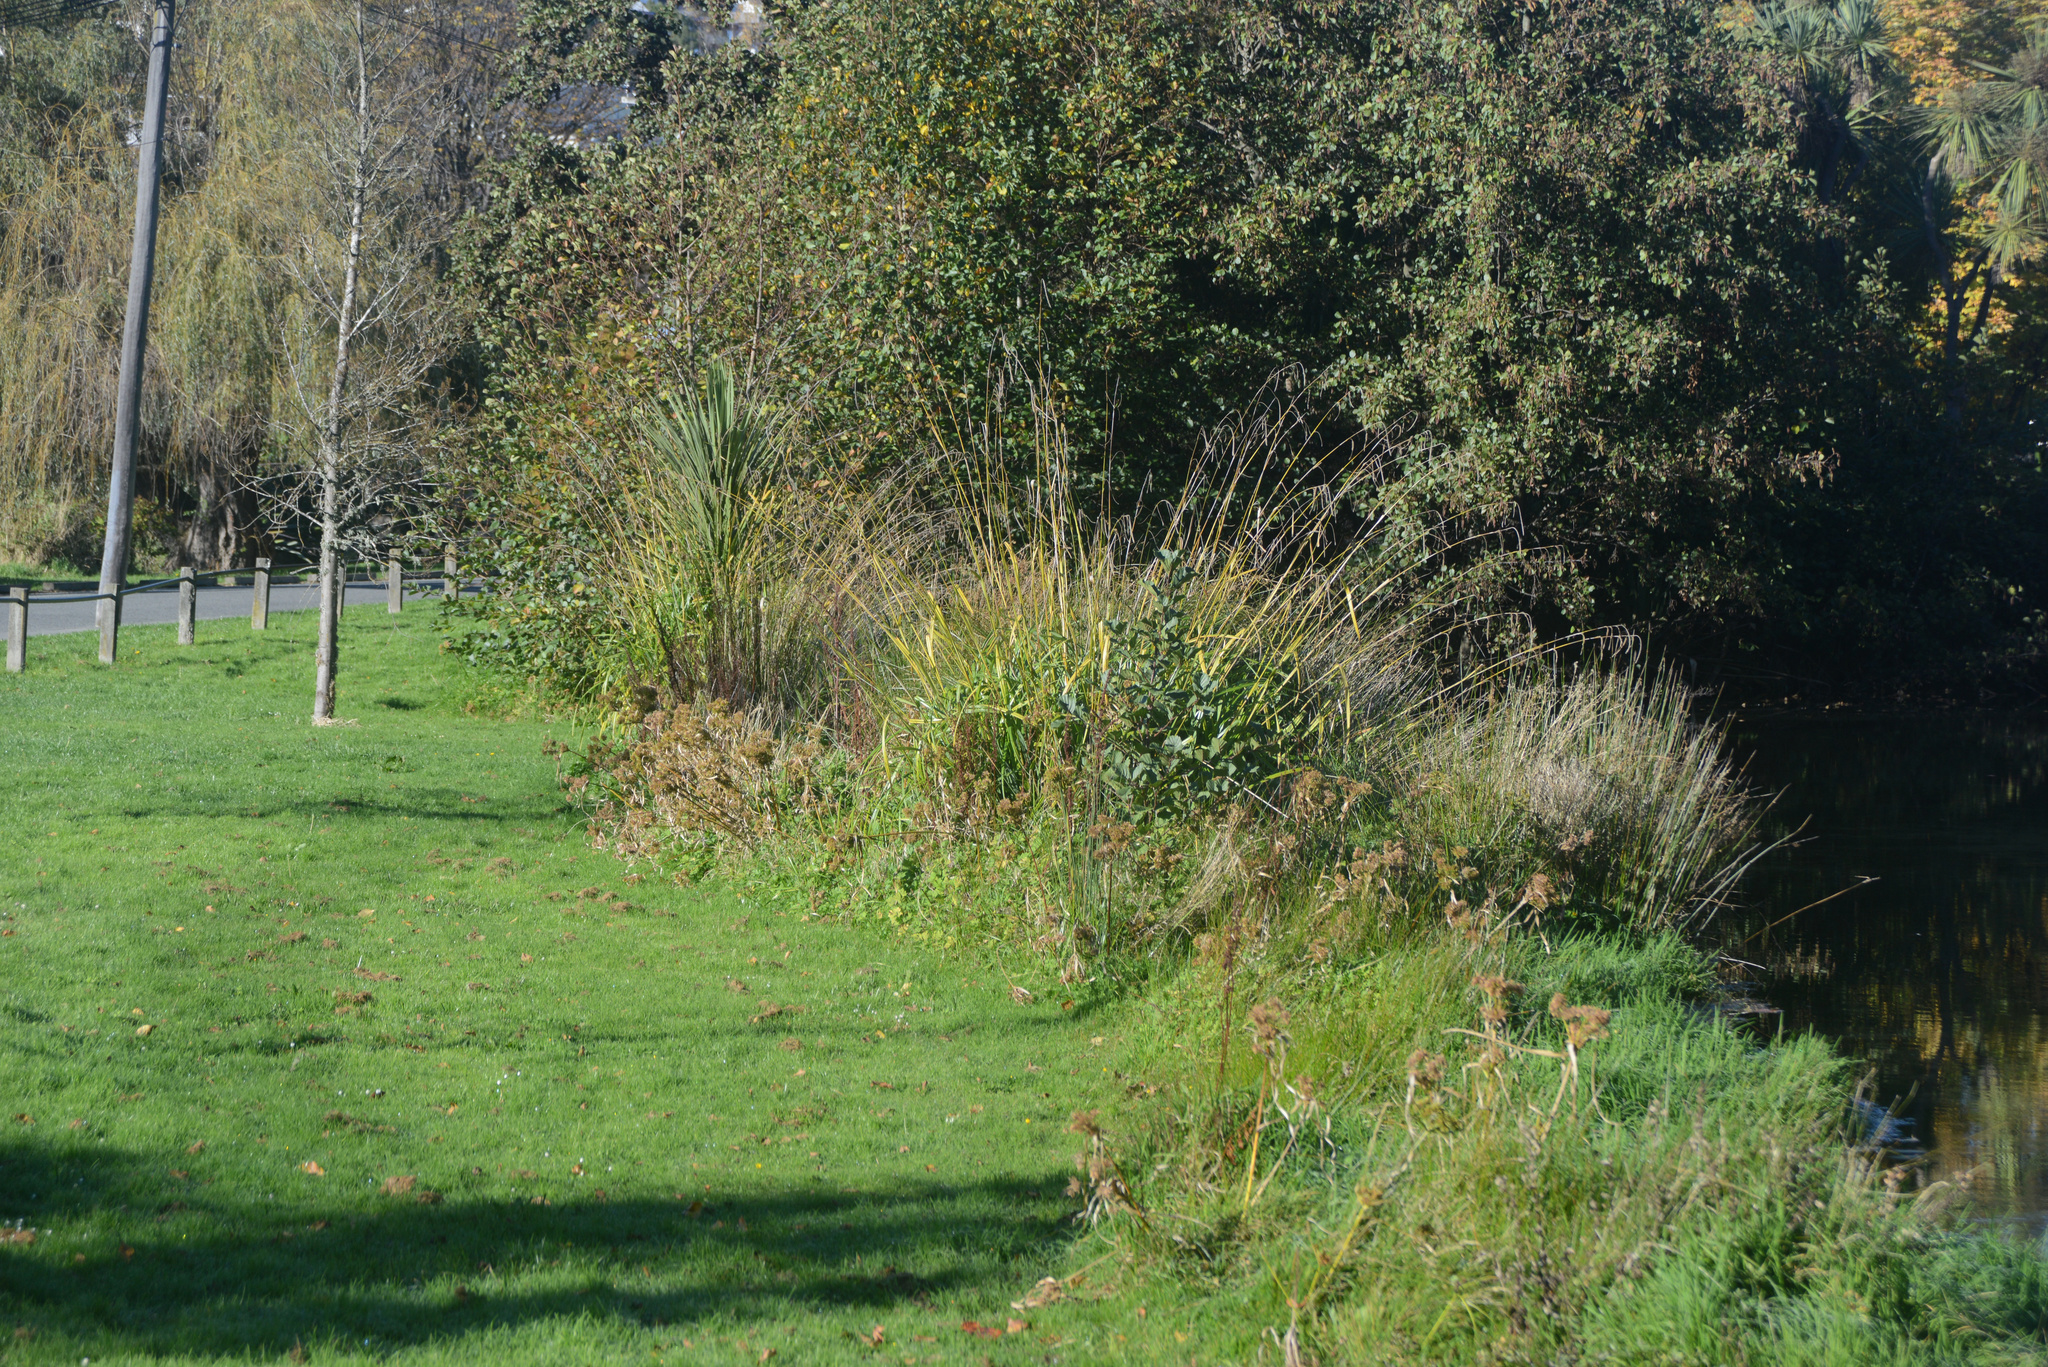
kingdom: Plantae
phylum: Tracheophyta
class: Liliopsida
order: Poales
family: Cyperaceae
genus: Carex
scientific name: Carex pendula
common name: Pendulous sedge
